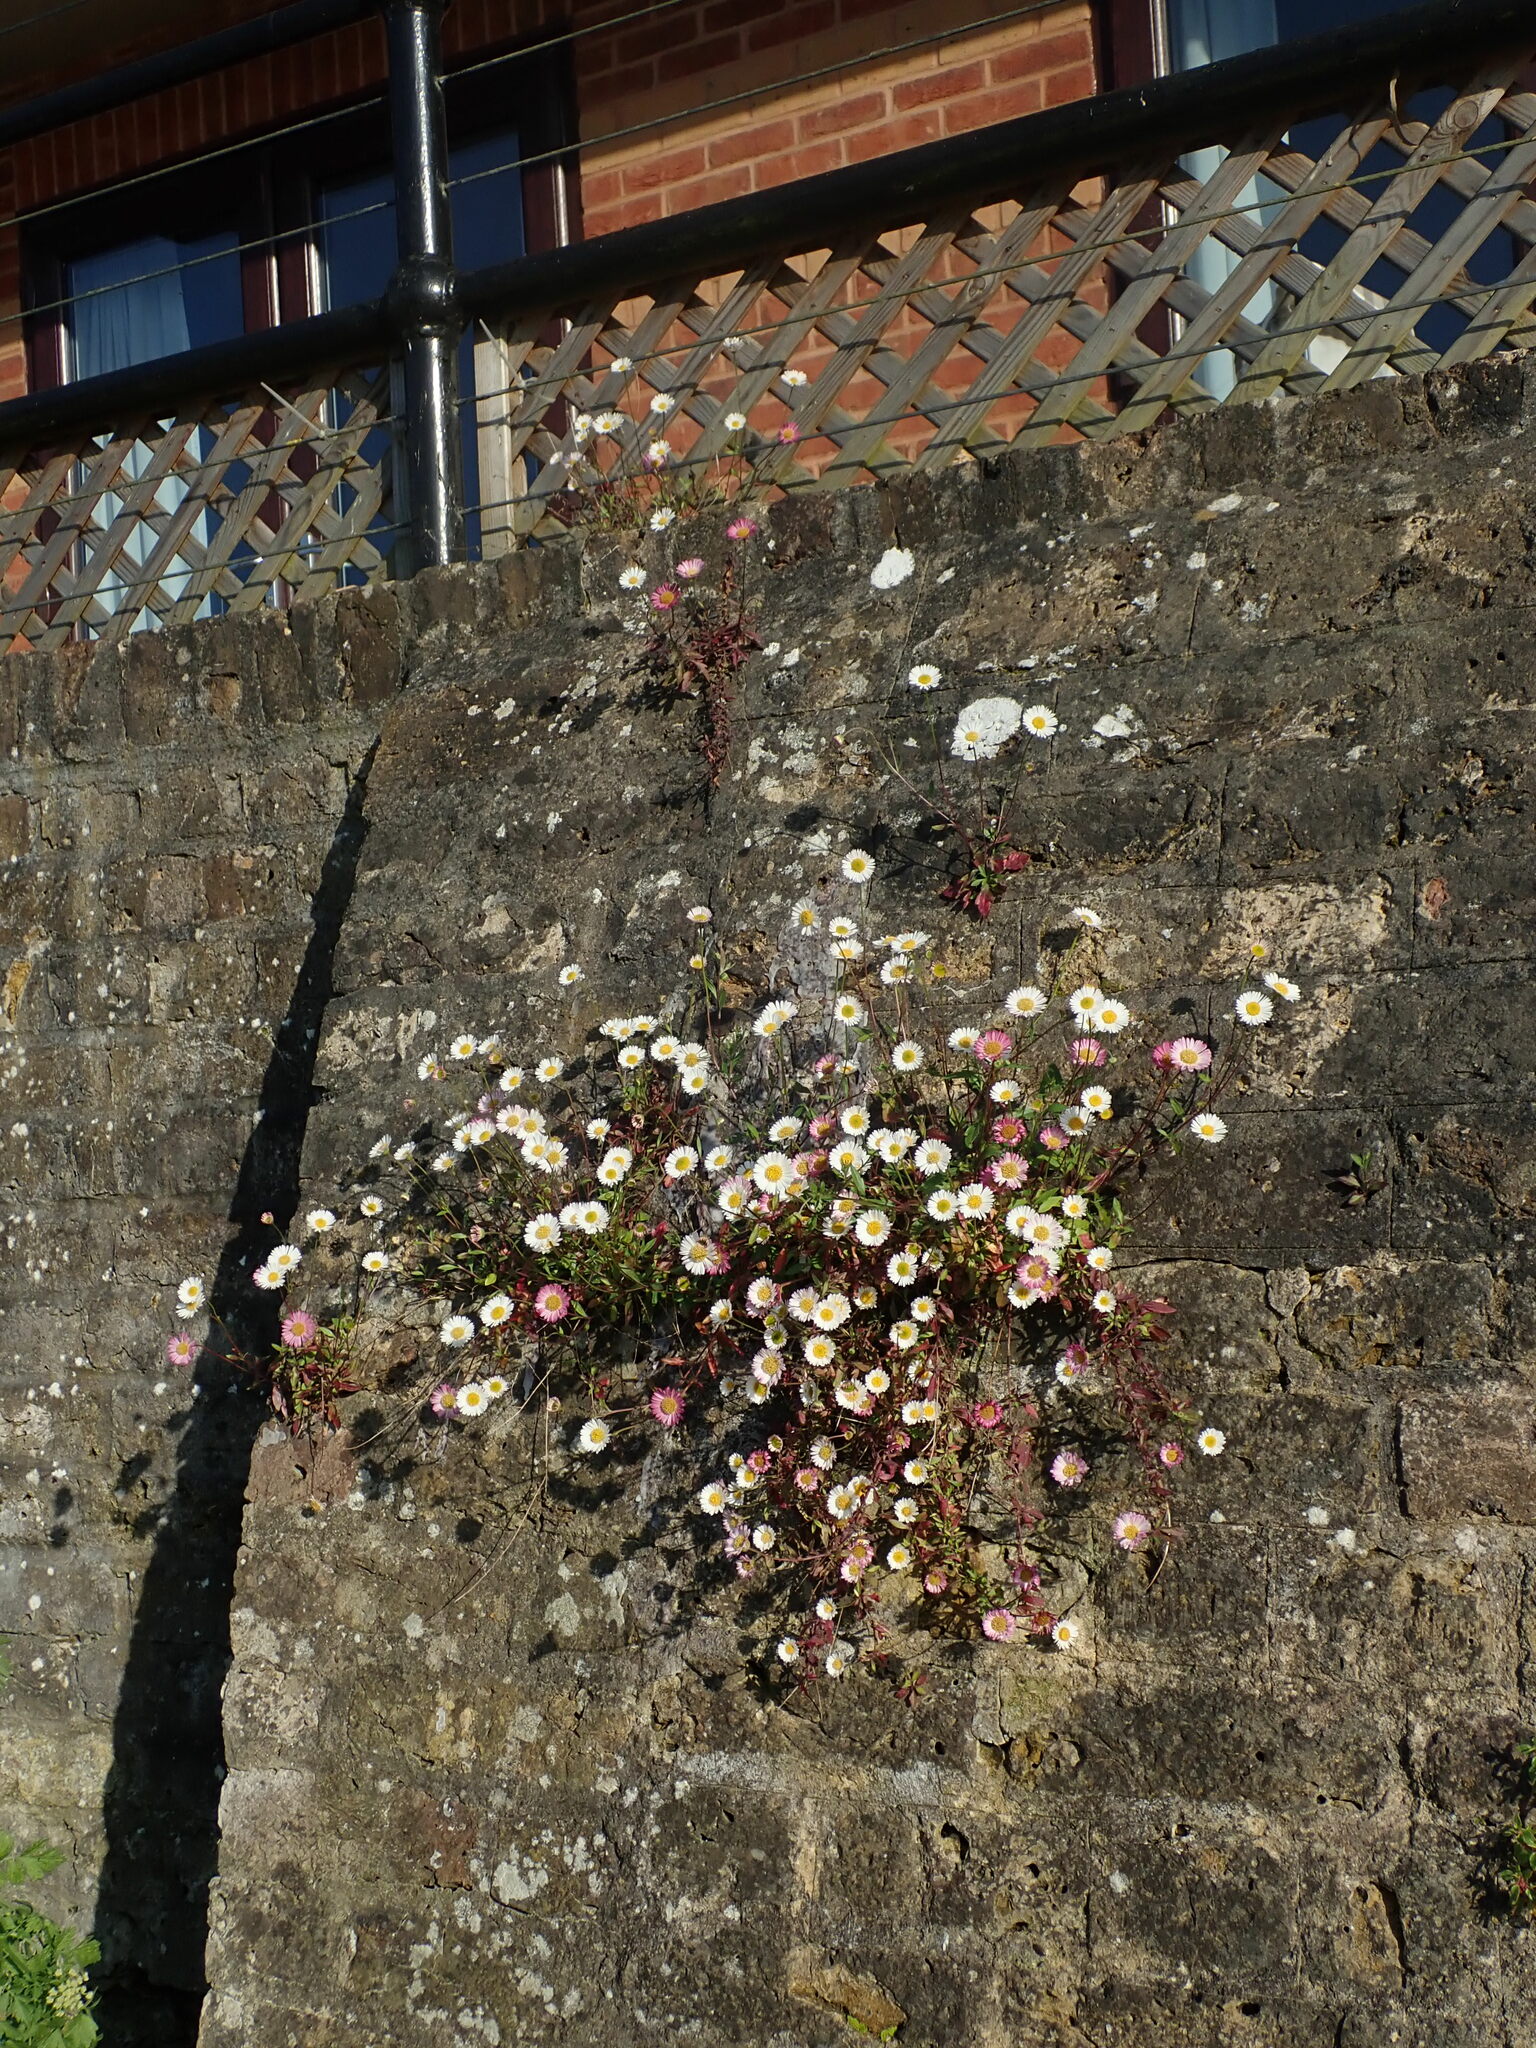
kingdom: Plantae
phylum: Tracheophyta
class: Magnoliopsida
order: Asterales
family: Asteraceae
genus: Erigeron
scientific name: Erigeron karvinskianus
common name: Mexican fleabane
